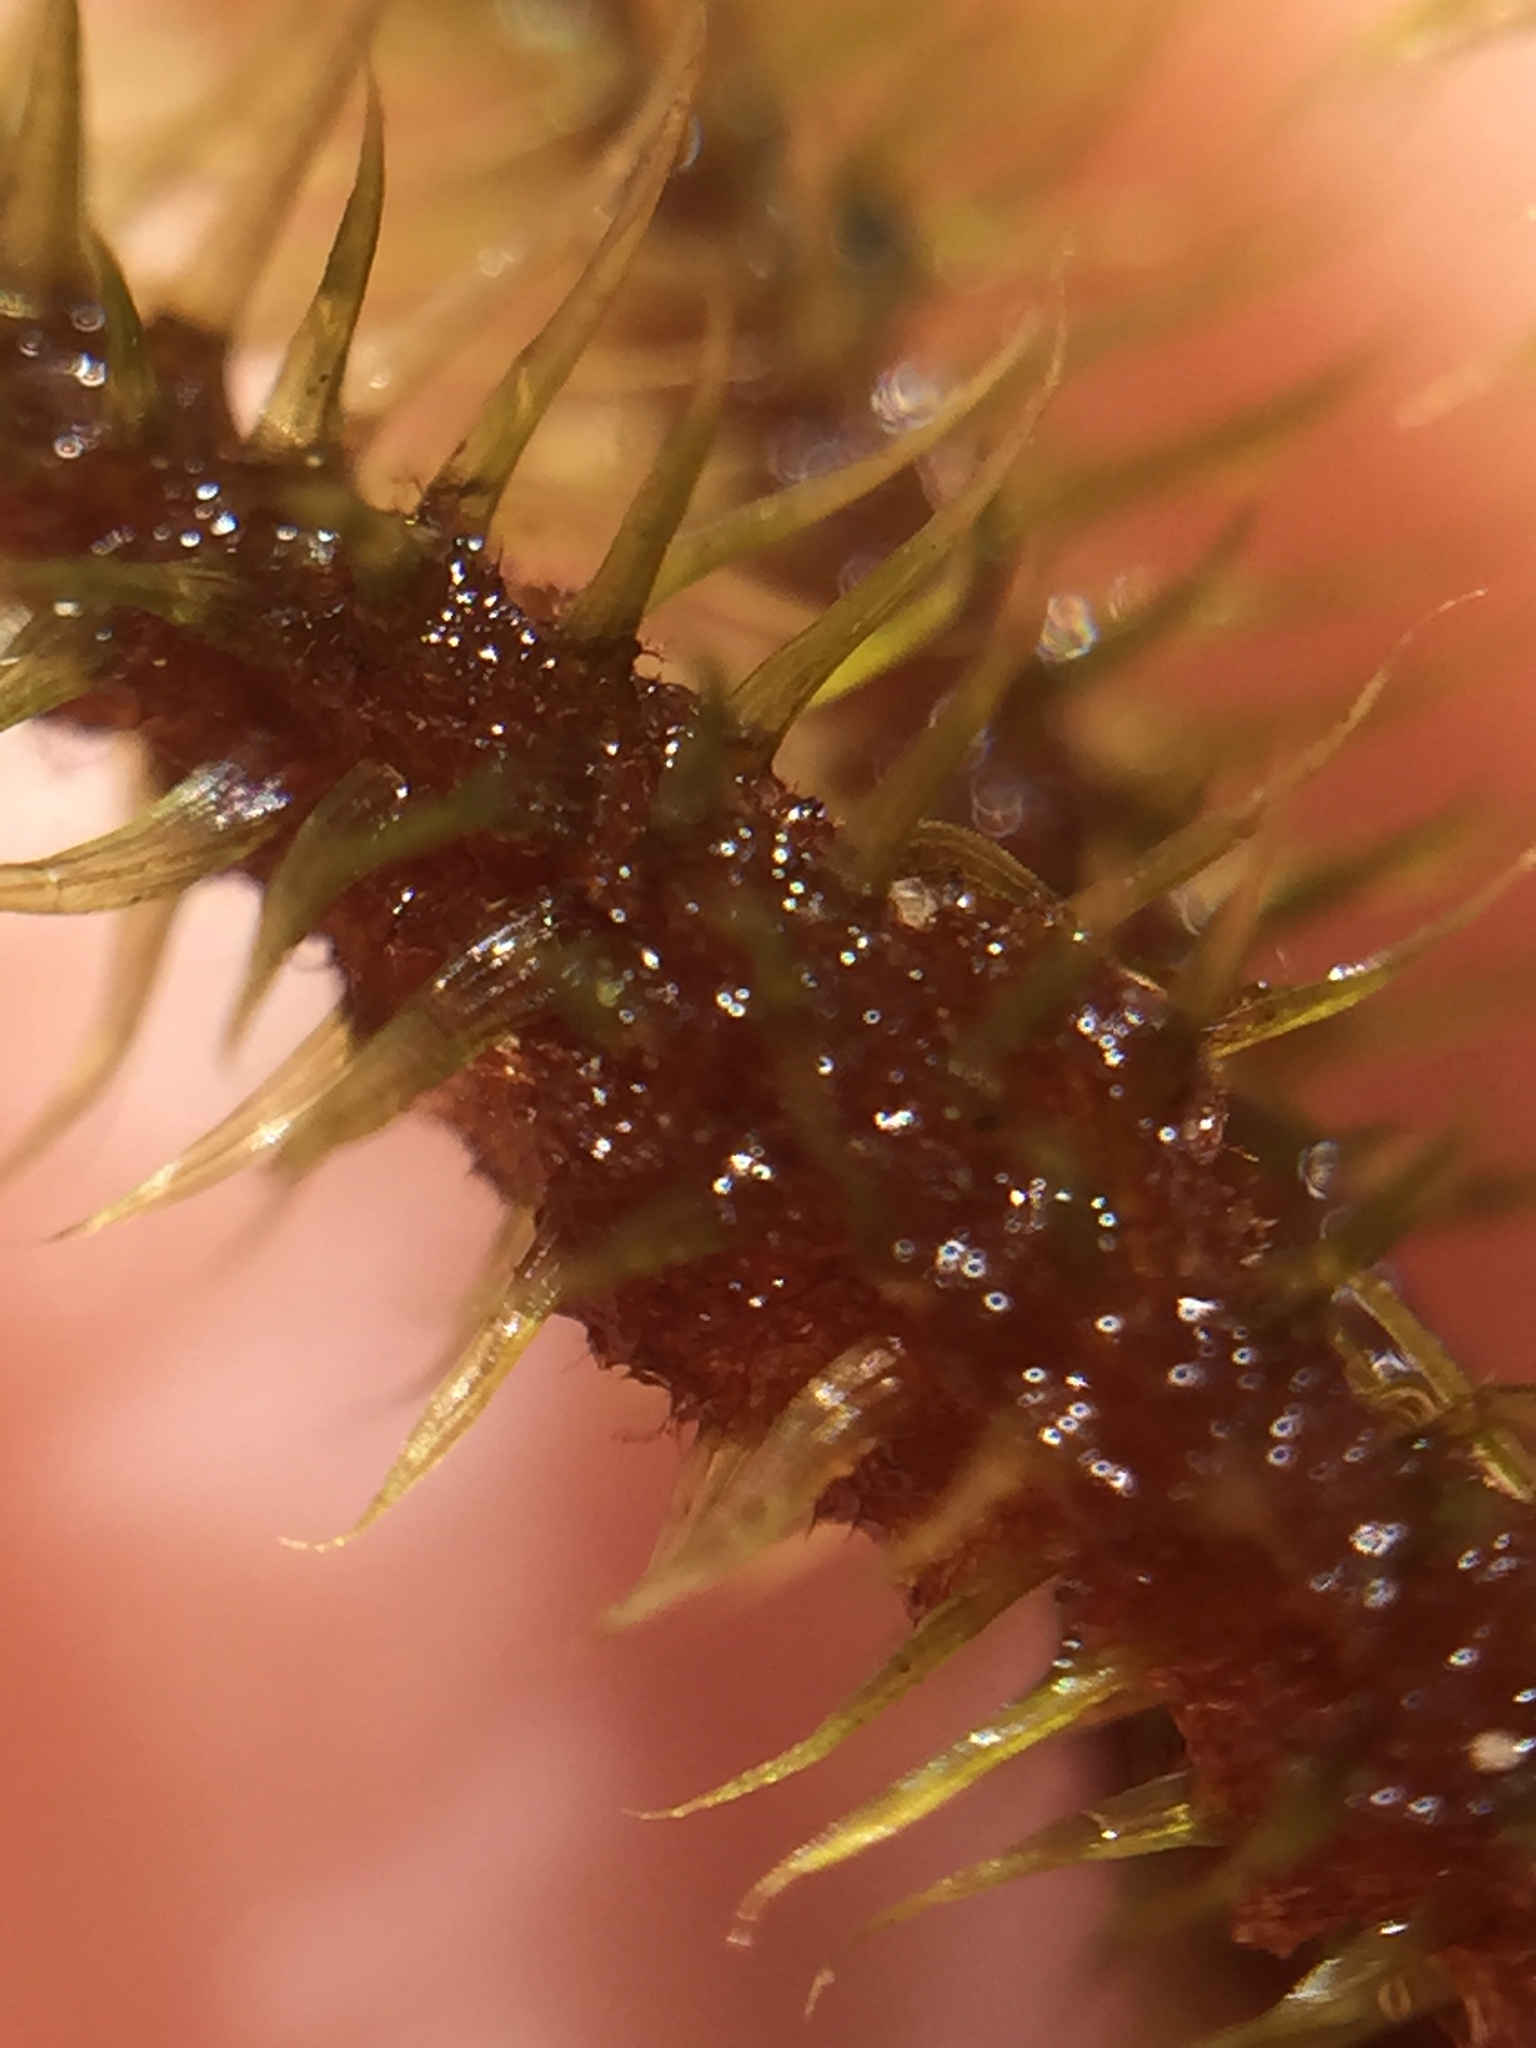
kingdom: Plantae
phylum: Bryophyta
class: Bryopsida
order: Bartramiales
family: Bartramiaceae
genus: Breutelia
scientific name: Breutelia pendula
